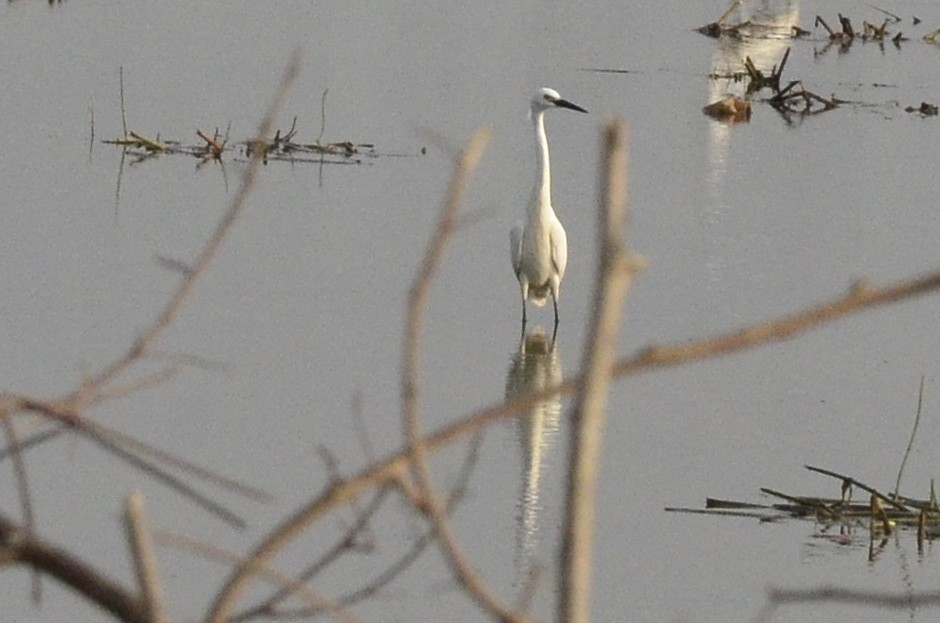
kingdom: Animalia
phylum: Chordata
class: Aves
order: Pelecaniformes
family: Ardeidae
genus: Egretta
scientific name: Egretta garzetta
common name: Little egret
